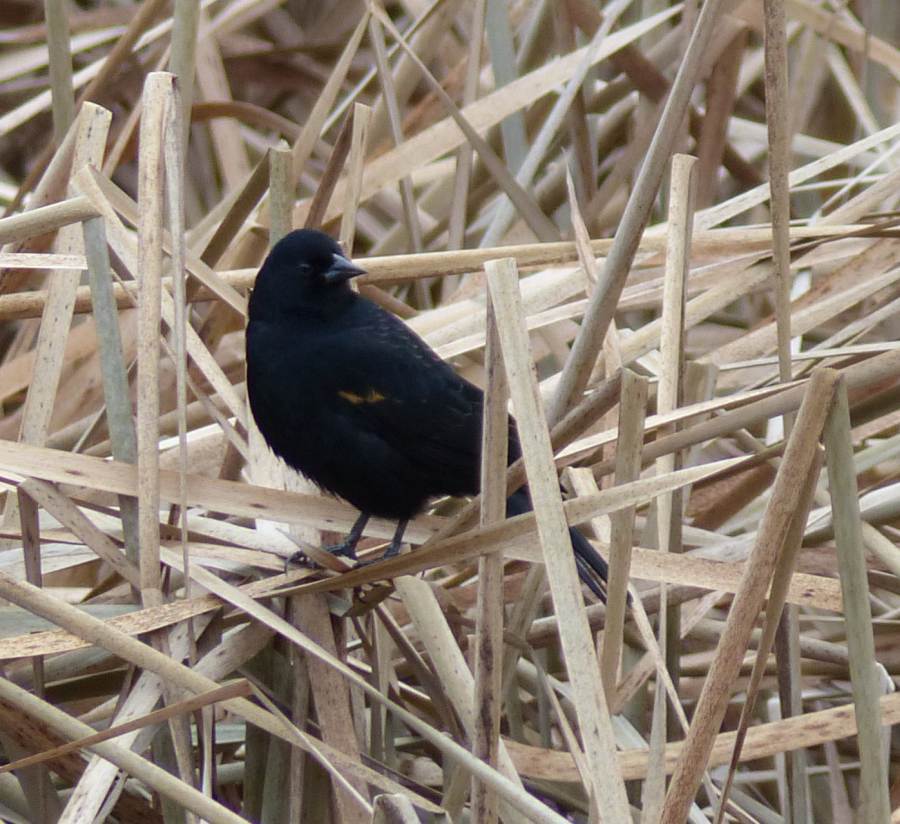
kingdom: Animalia
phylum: Chordata
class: Aves
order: Passeriformes
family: Icteridae
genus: Agelaius
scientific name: Agelaius phoeniceus
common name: Red-winged blackbird
